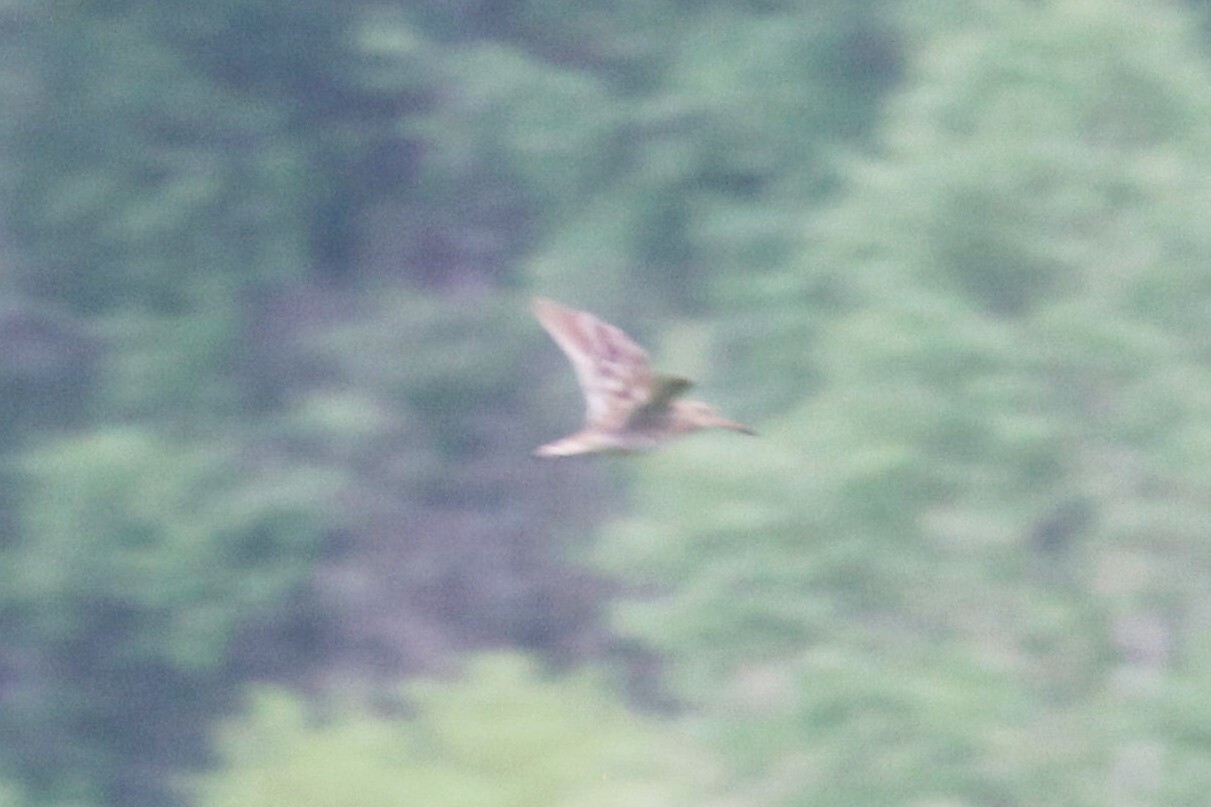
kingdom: Animalia
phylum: Chordata
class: Aves
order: Charadriiformes
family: Scolopacidae
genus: Gallinago
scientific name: Gallinago media
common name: Great snipe
